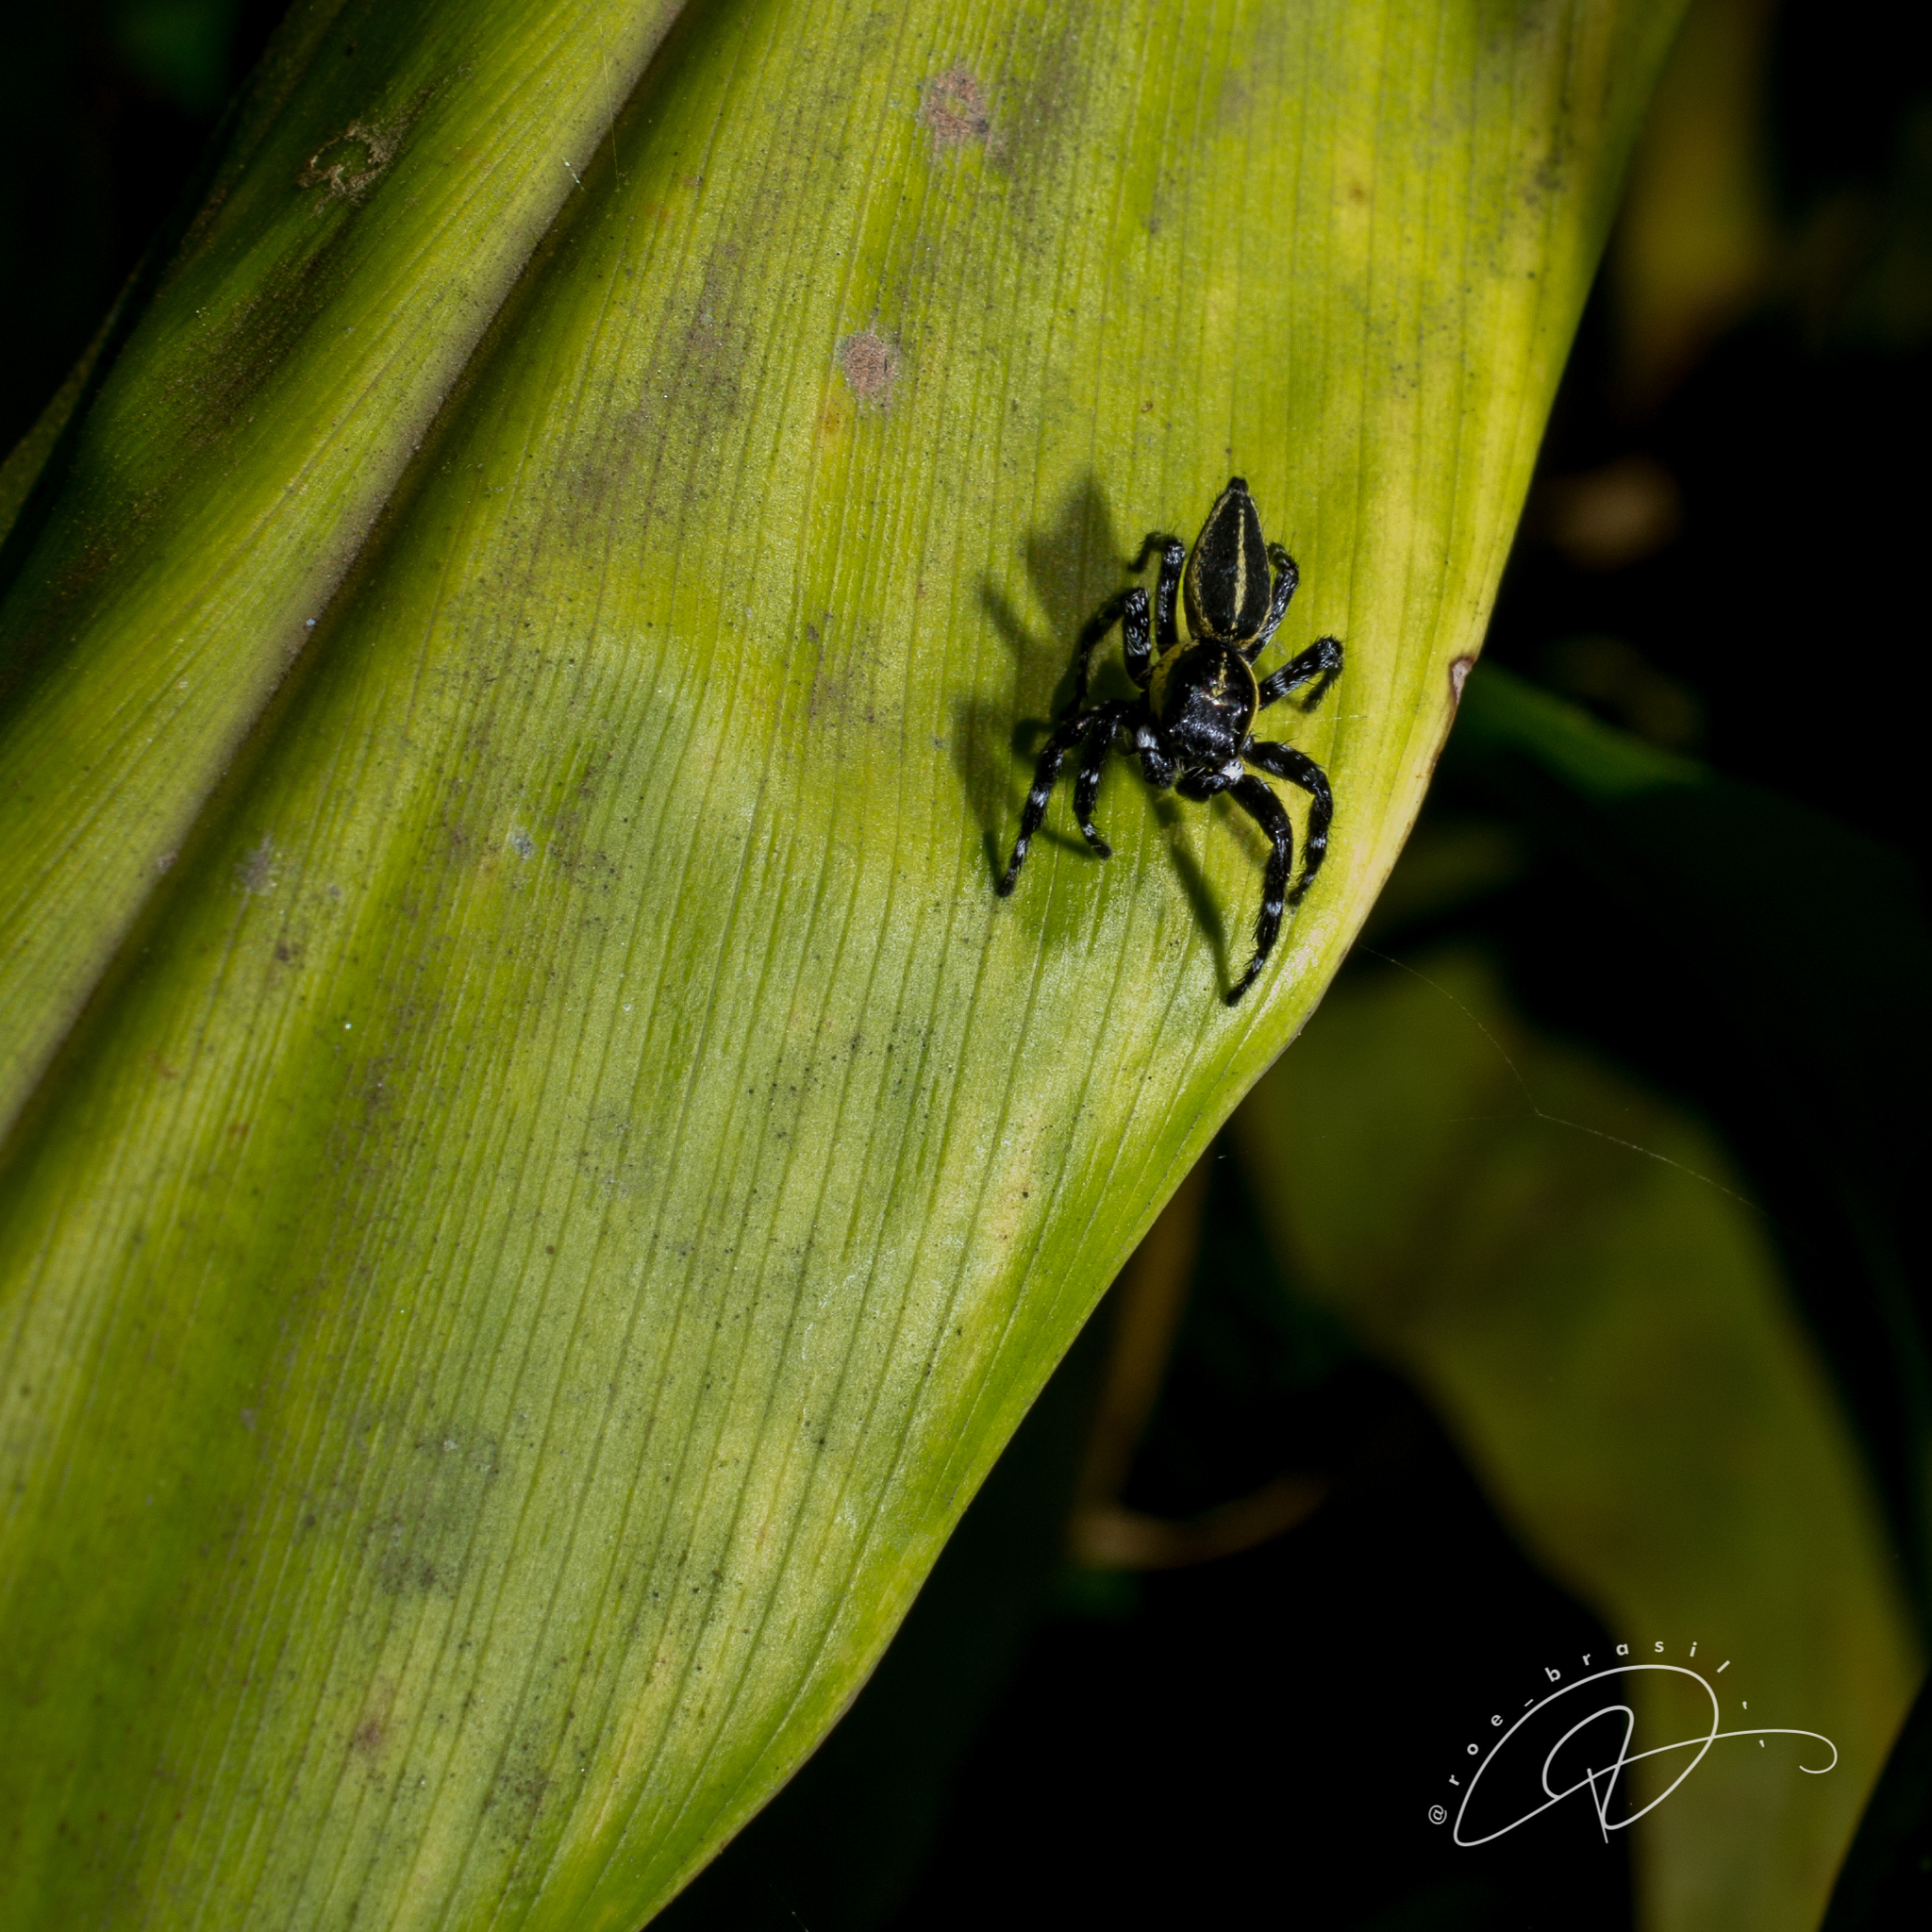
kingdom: Animalia
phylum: Arthropoda
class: Arachnida
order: Araneae
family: Salticidae
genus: Phiale
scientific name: Phiale tristis
